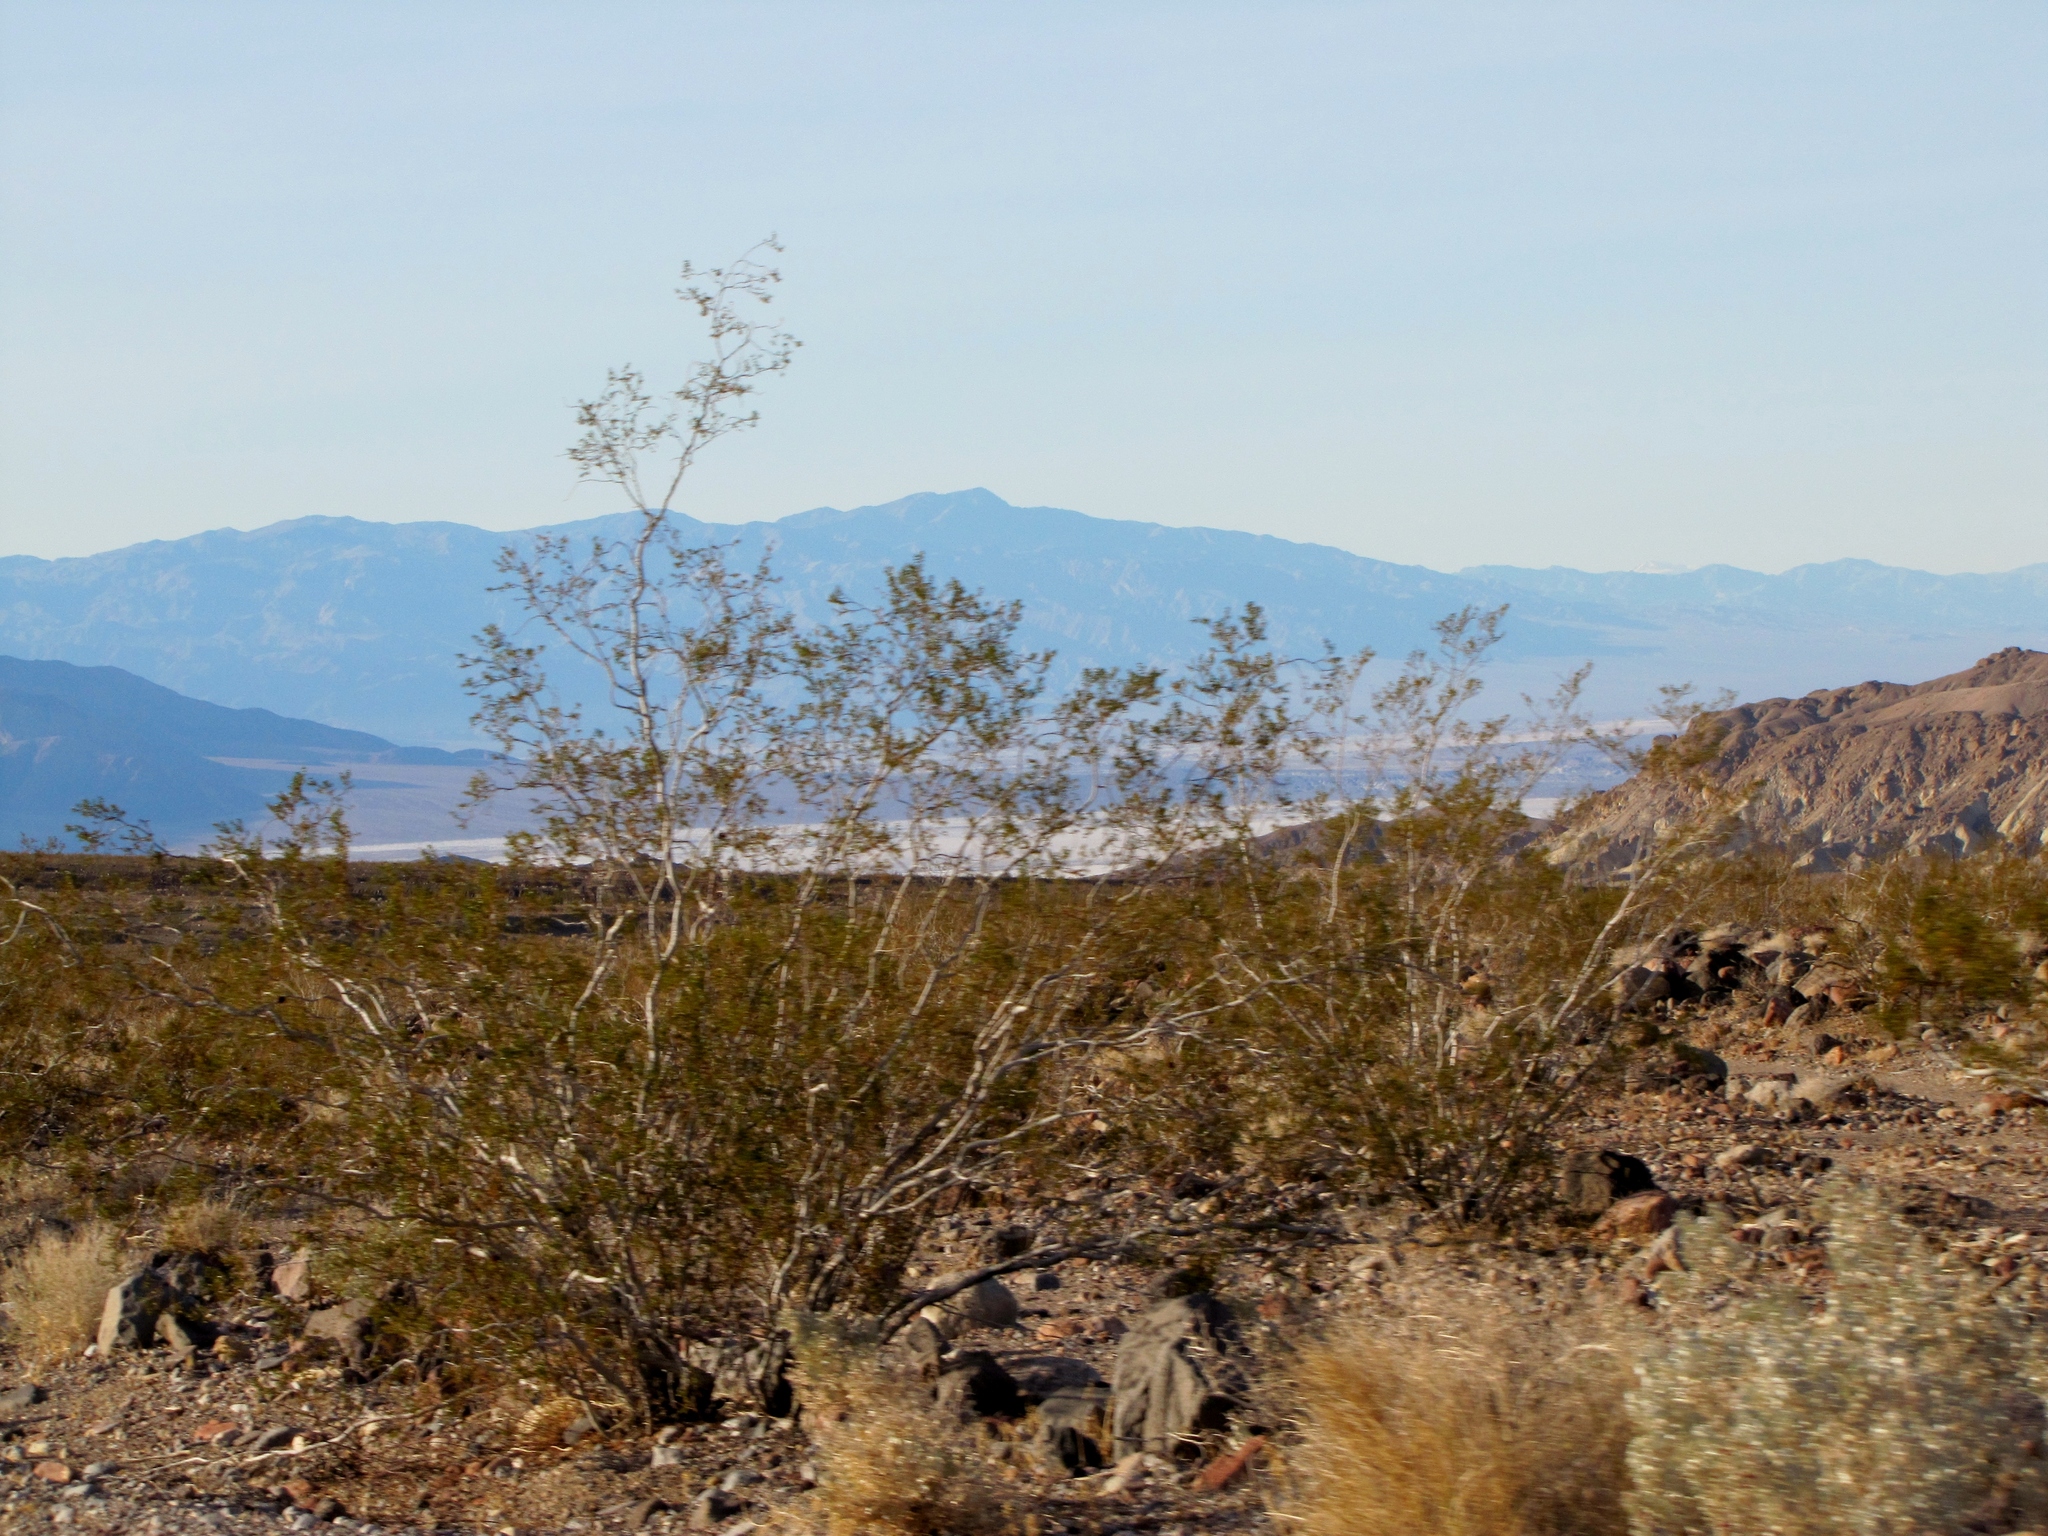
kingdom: Plantae
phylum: Tracheophyta
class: Magnoliopsida
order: Zygophyllales
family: Zygophyllaceae
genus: Larrea
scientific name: Larrea tridentata
